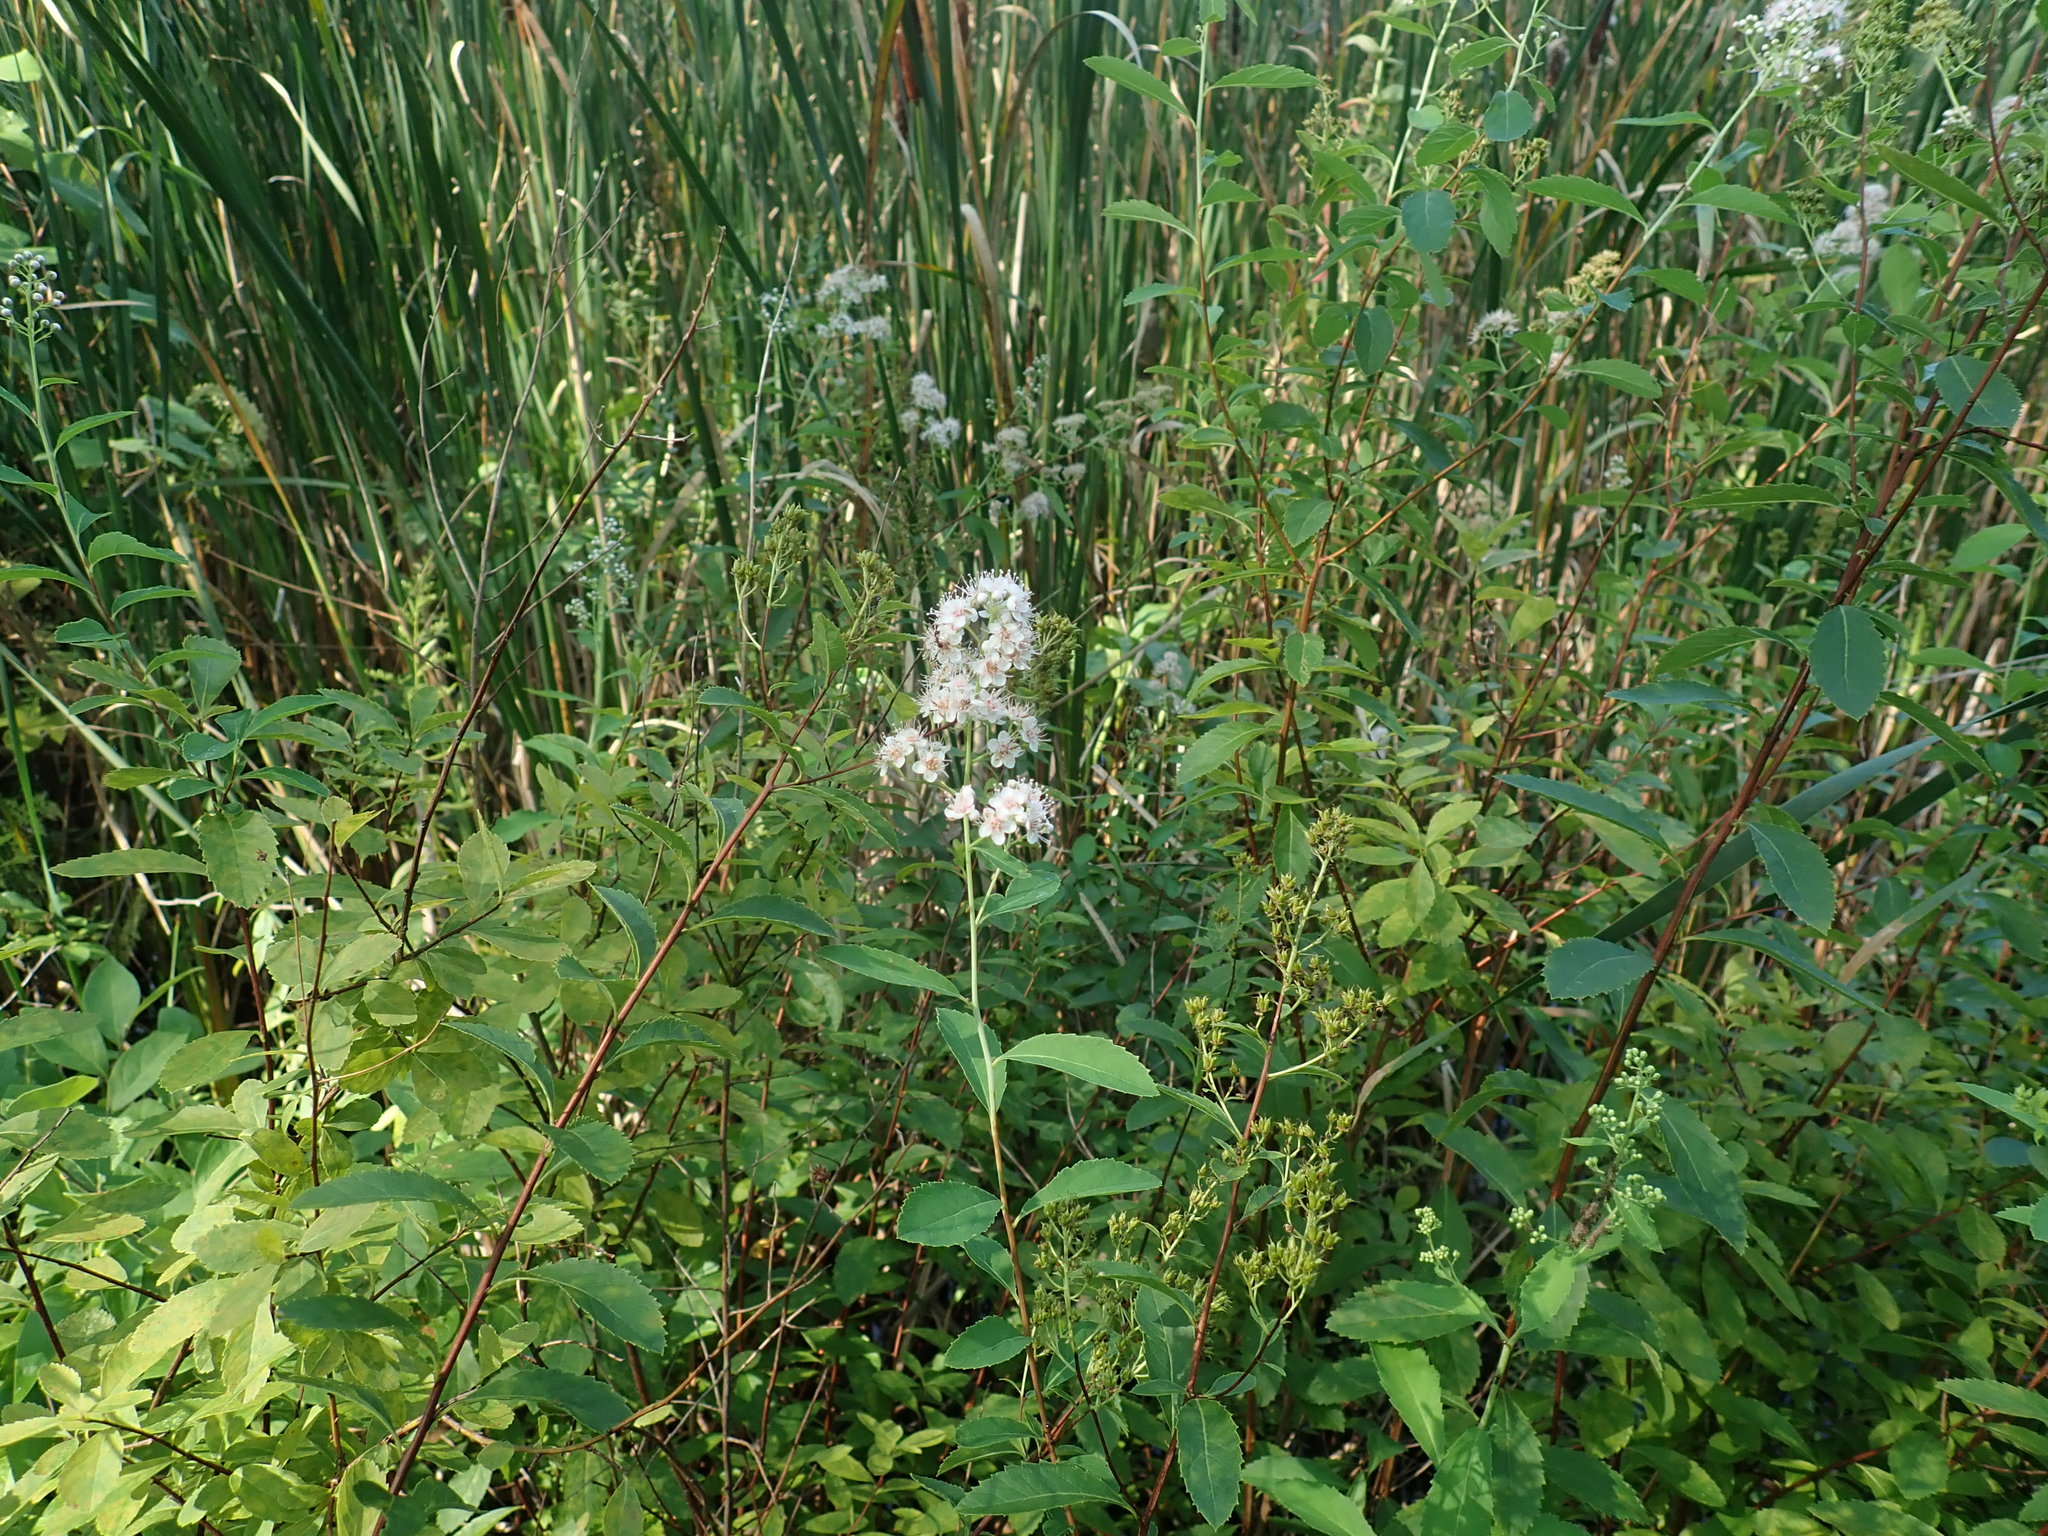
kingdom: Plantae
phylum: Tracheophyta
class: Magnoliopsida
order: Rosales
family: Rosaceae
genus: Spiraea
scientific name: Spiraea alba
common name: Pale bridewort
